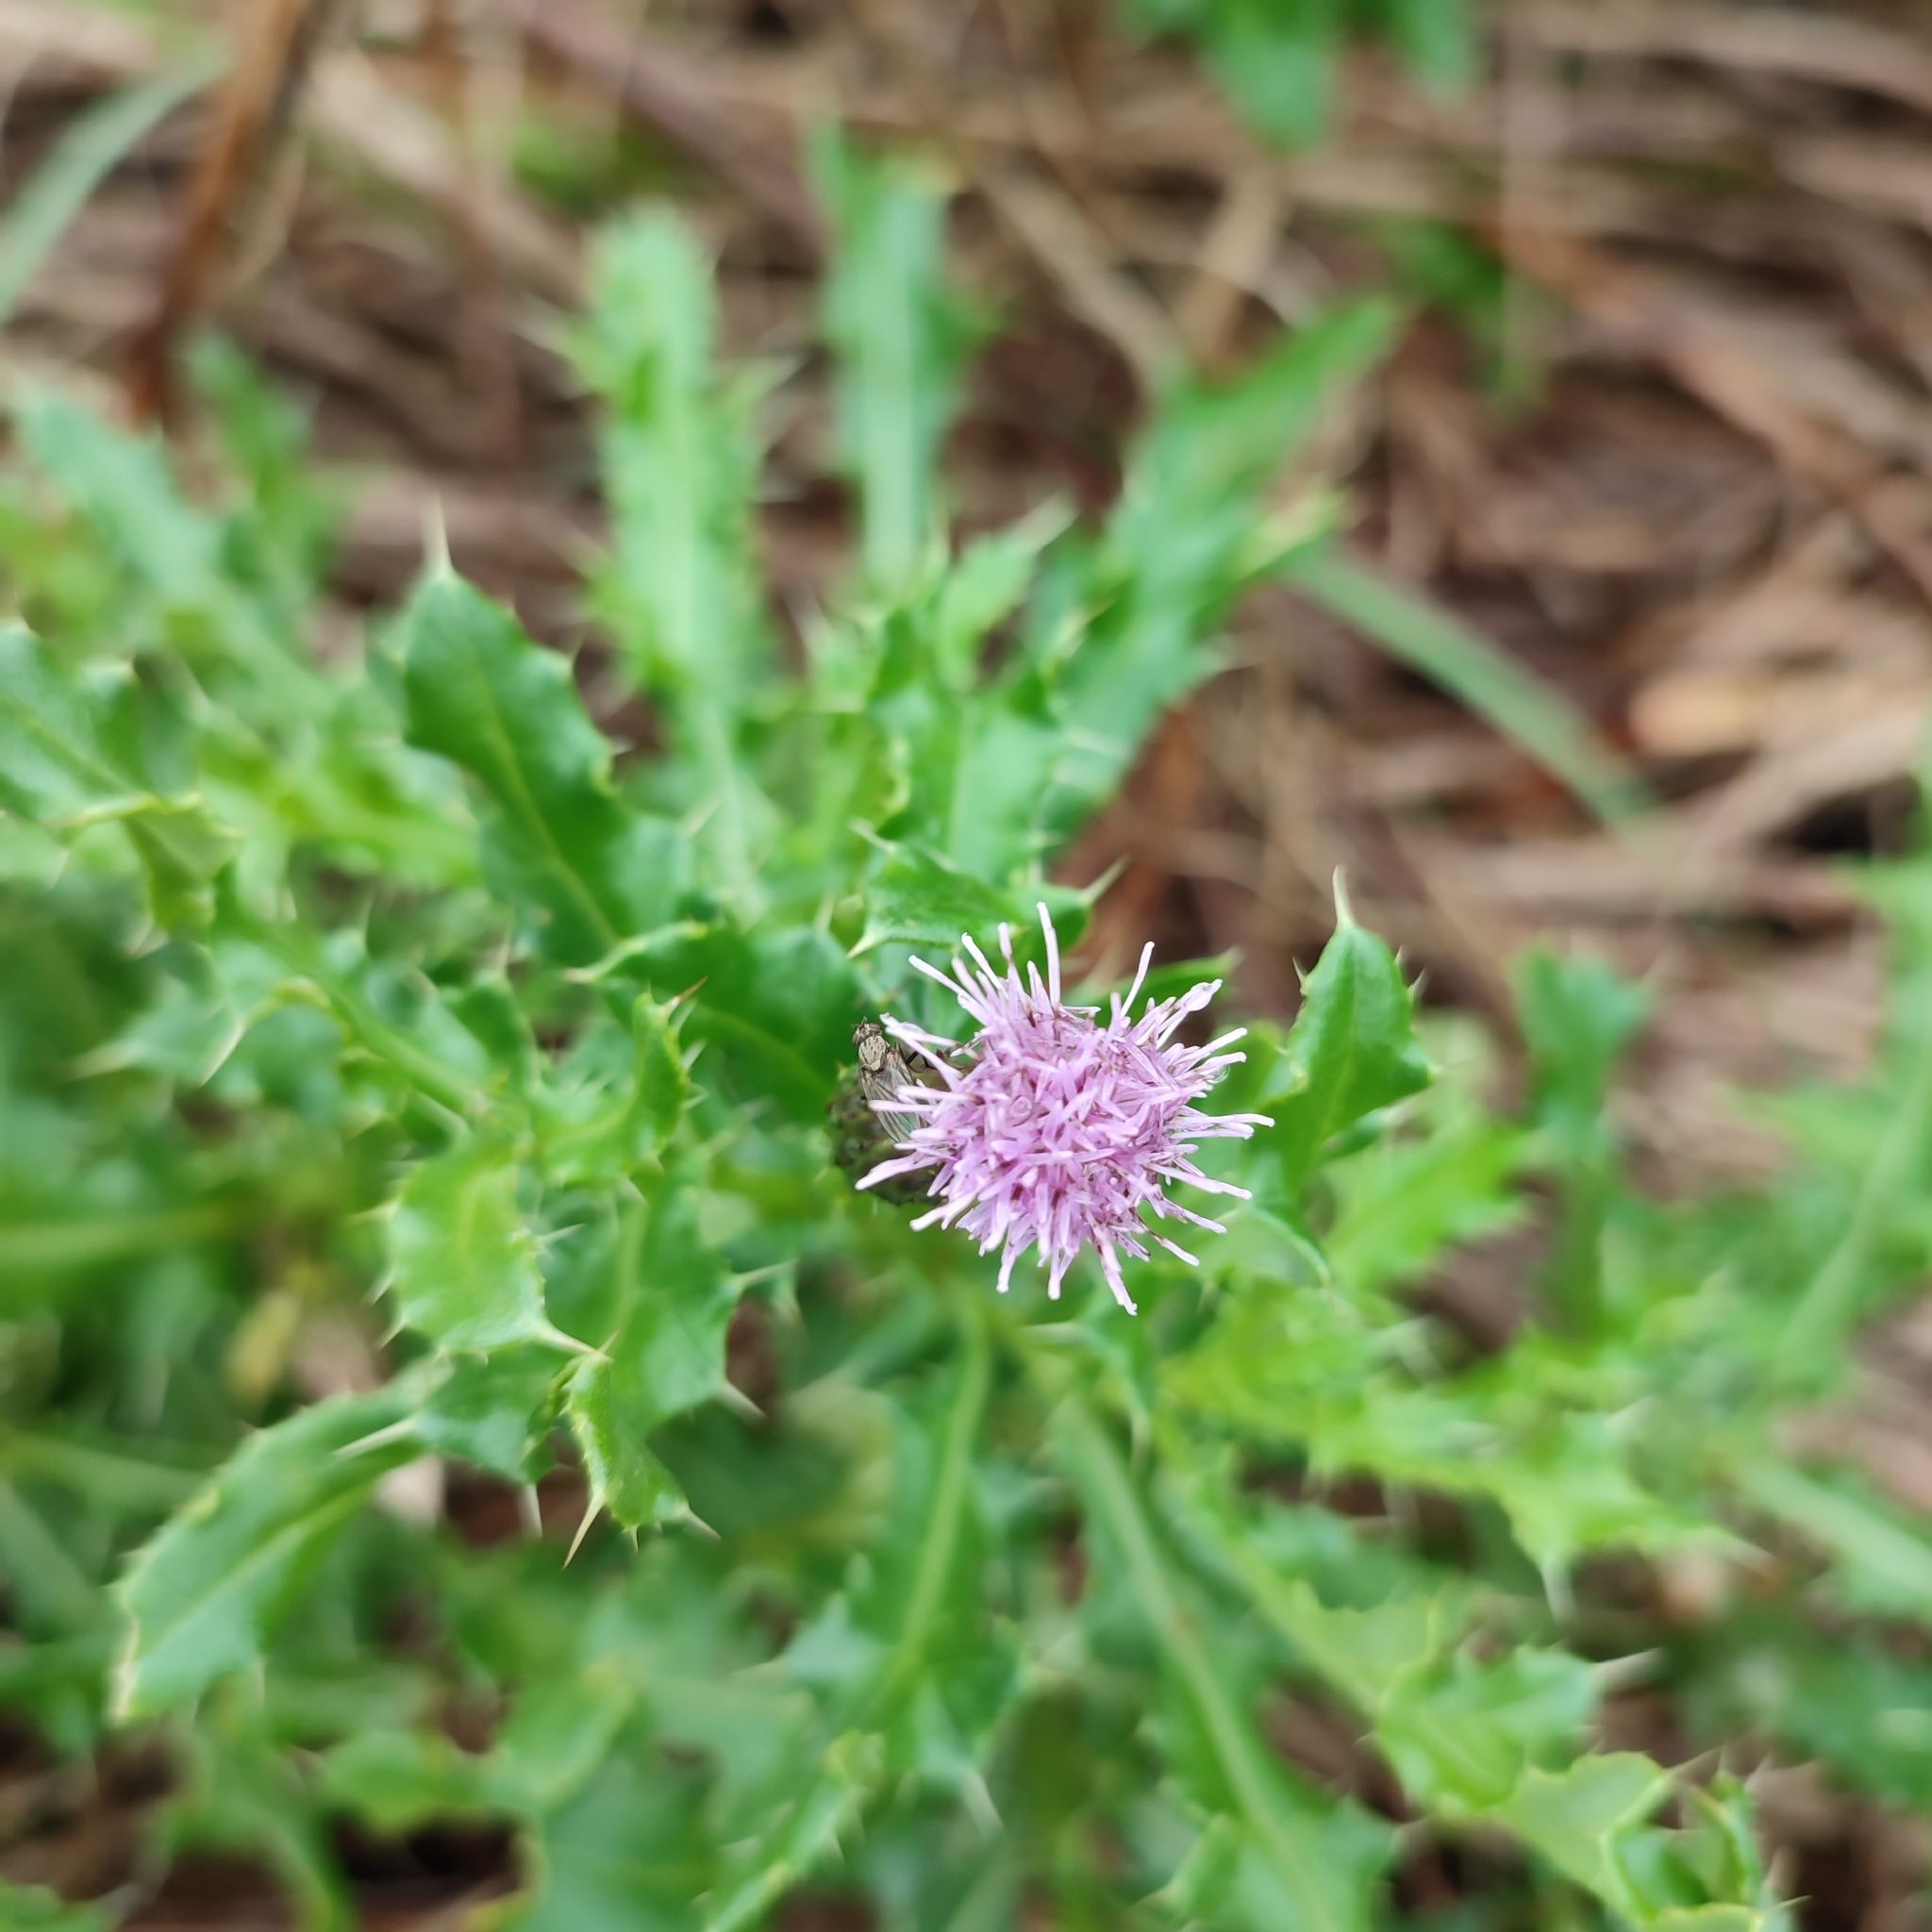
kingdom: Plantae
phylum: Tracheophyta
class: Magnoliopsida
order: Asterales
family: Asteraceae
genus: Cirsium
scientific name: Cirsium arvense
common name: Creeping thistle
